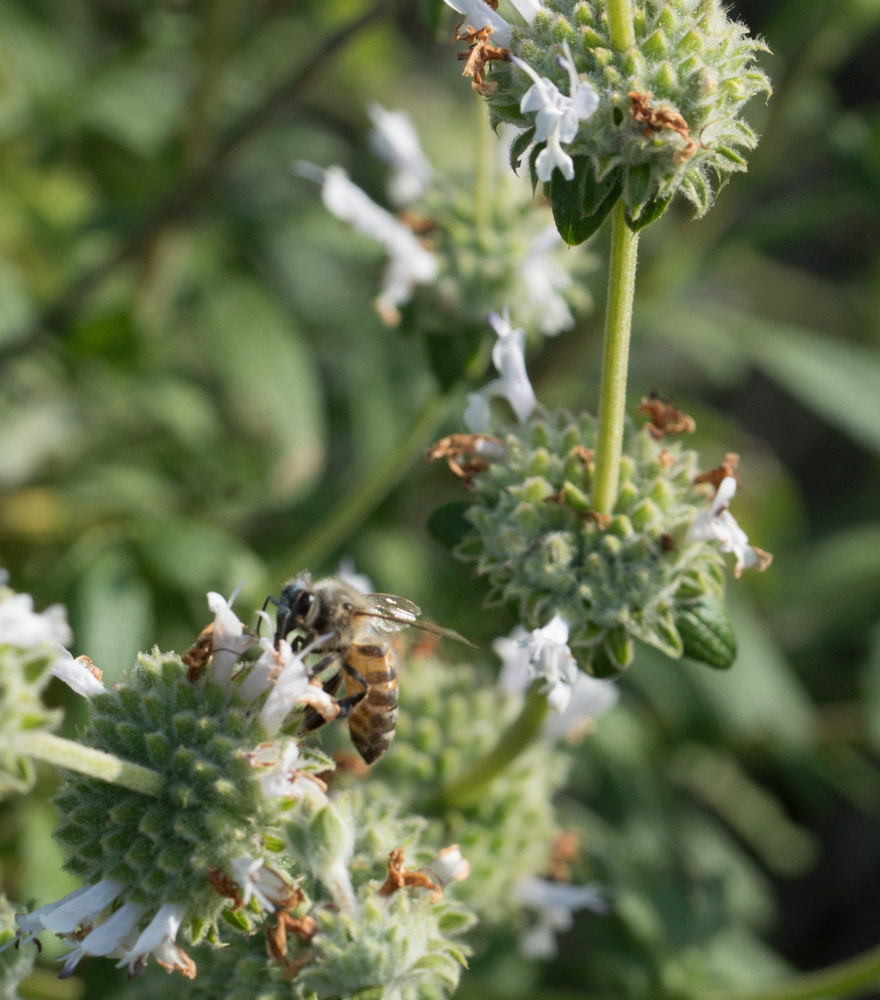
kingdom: Plantae
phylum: Tracheophyta
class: Magnoliopsida
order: Lamiales
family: Lamiaceae
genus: Salvia
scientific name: Salvia mellifera
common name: Black sage
